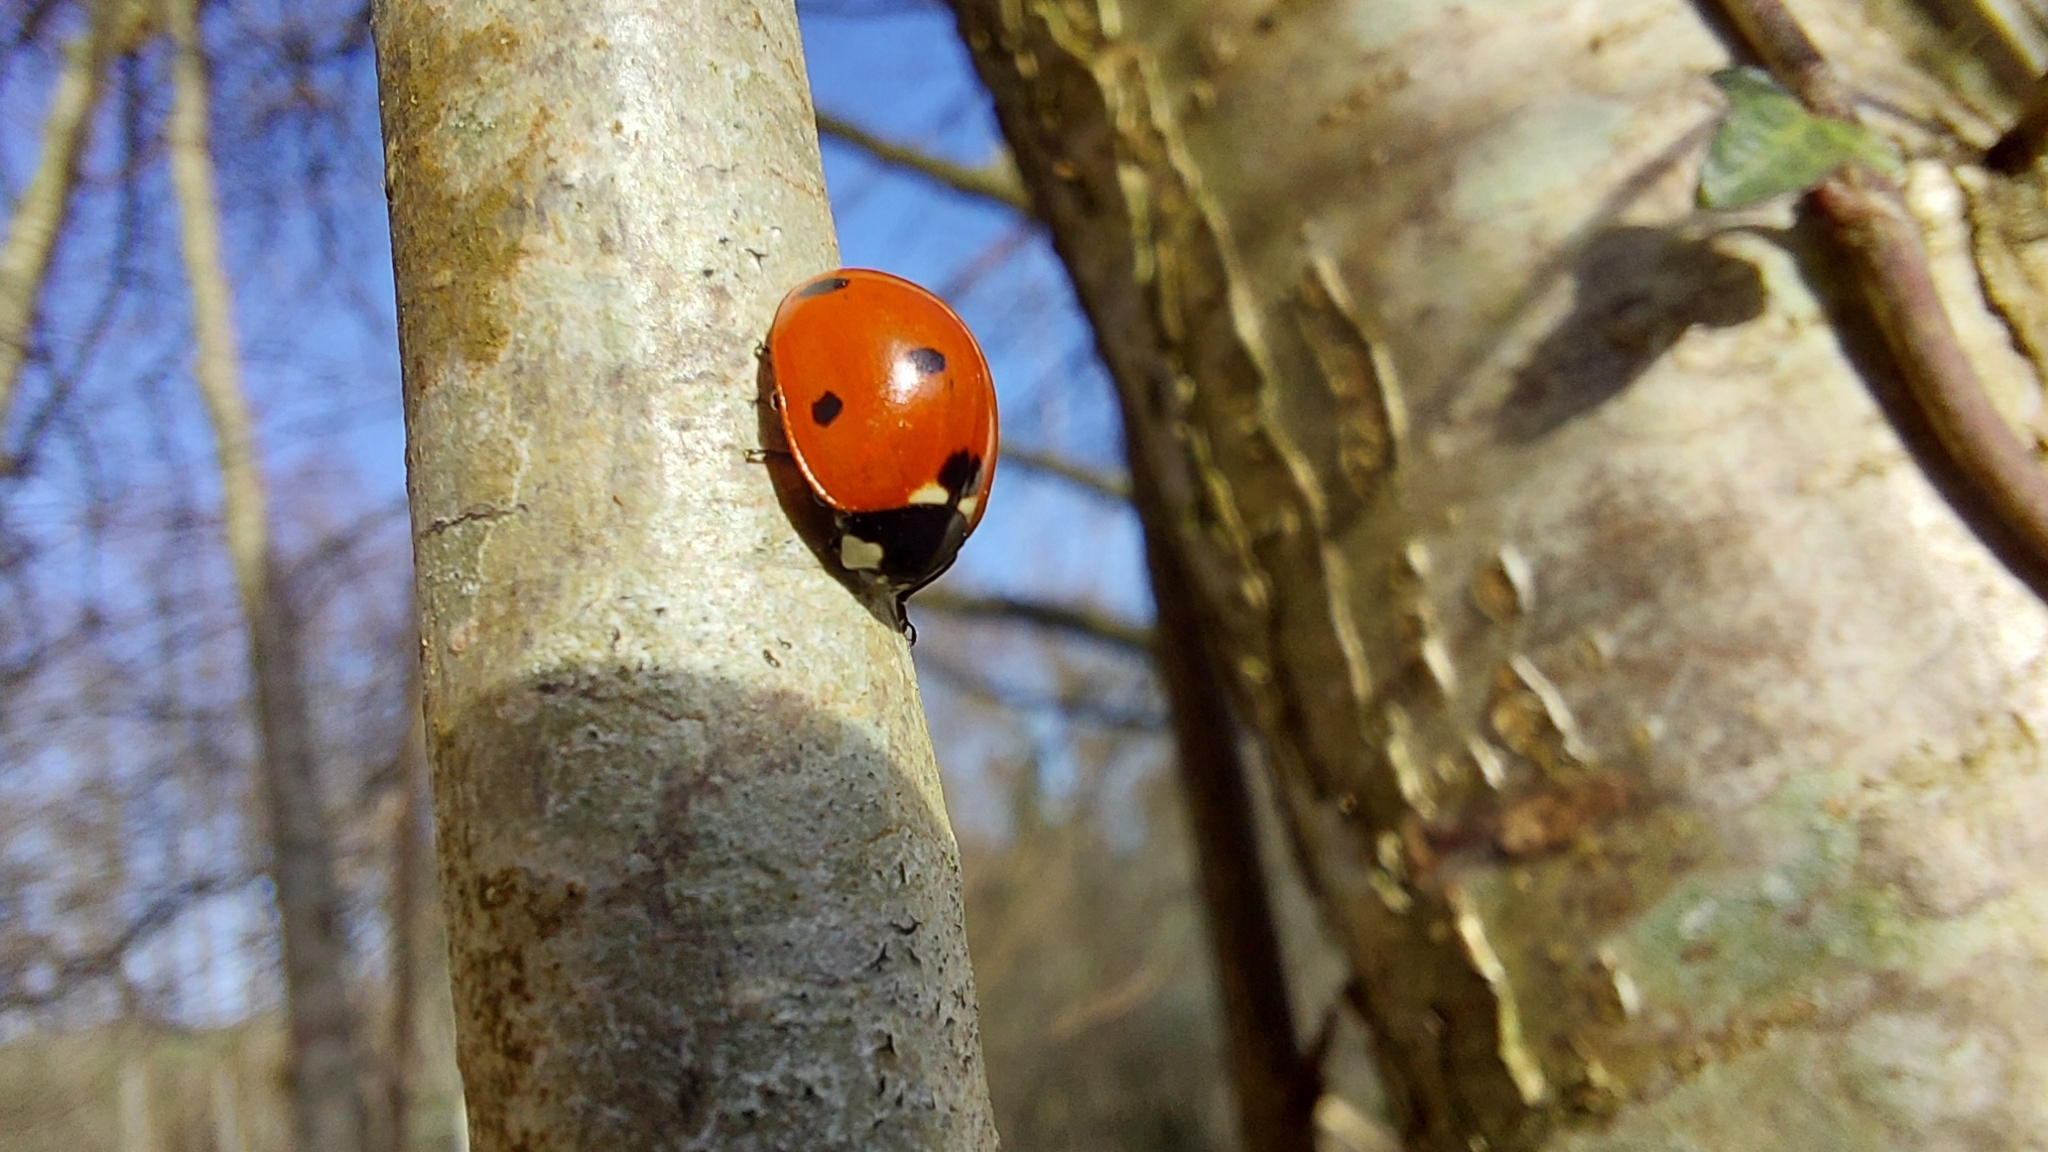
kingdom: Animalia
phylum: Arthropoda
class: Insecta
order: Coleoptera
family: Coccinellidae
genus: Coccinella
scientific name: Coccinella septempunctata
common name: Sevenspotted lady beetle
